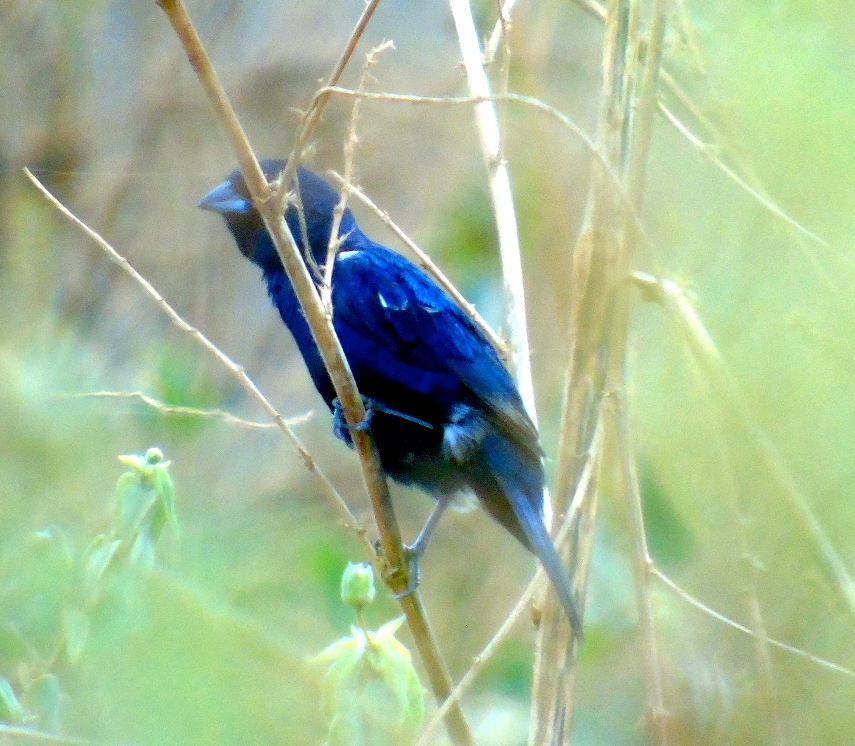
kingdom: Animalia
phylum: Chordata
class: Aves
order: Passeriformes
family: Thraupidae
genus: Volatinia
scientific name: Volatinia jacarina
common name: Blue-black grassquit
